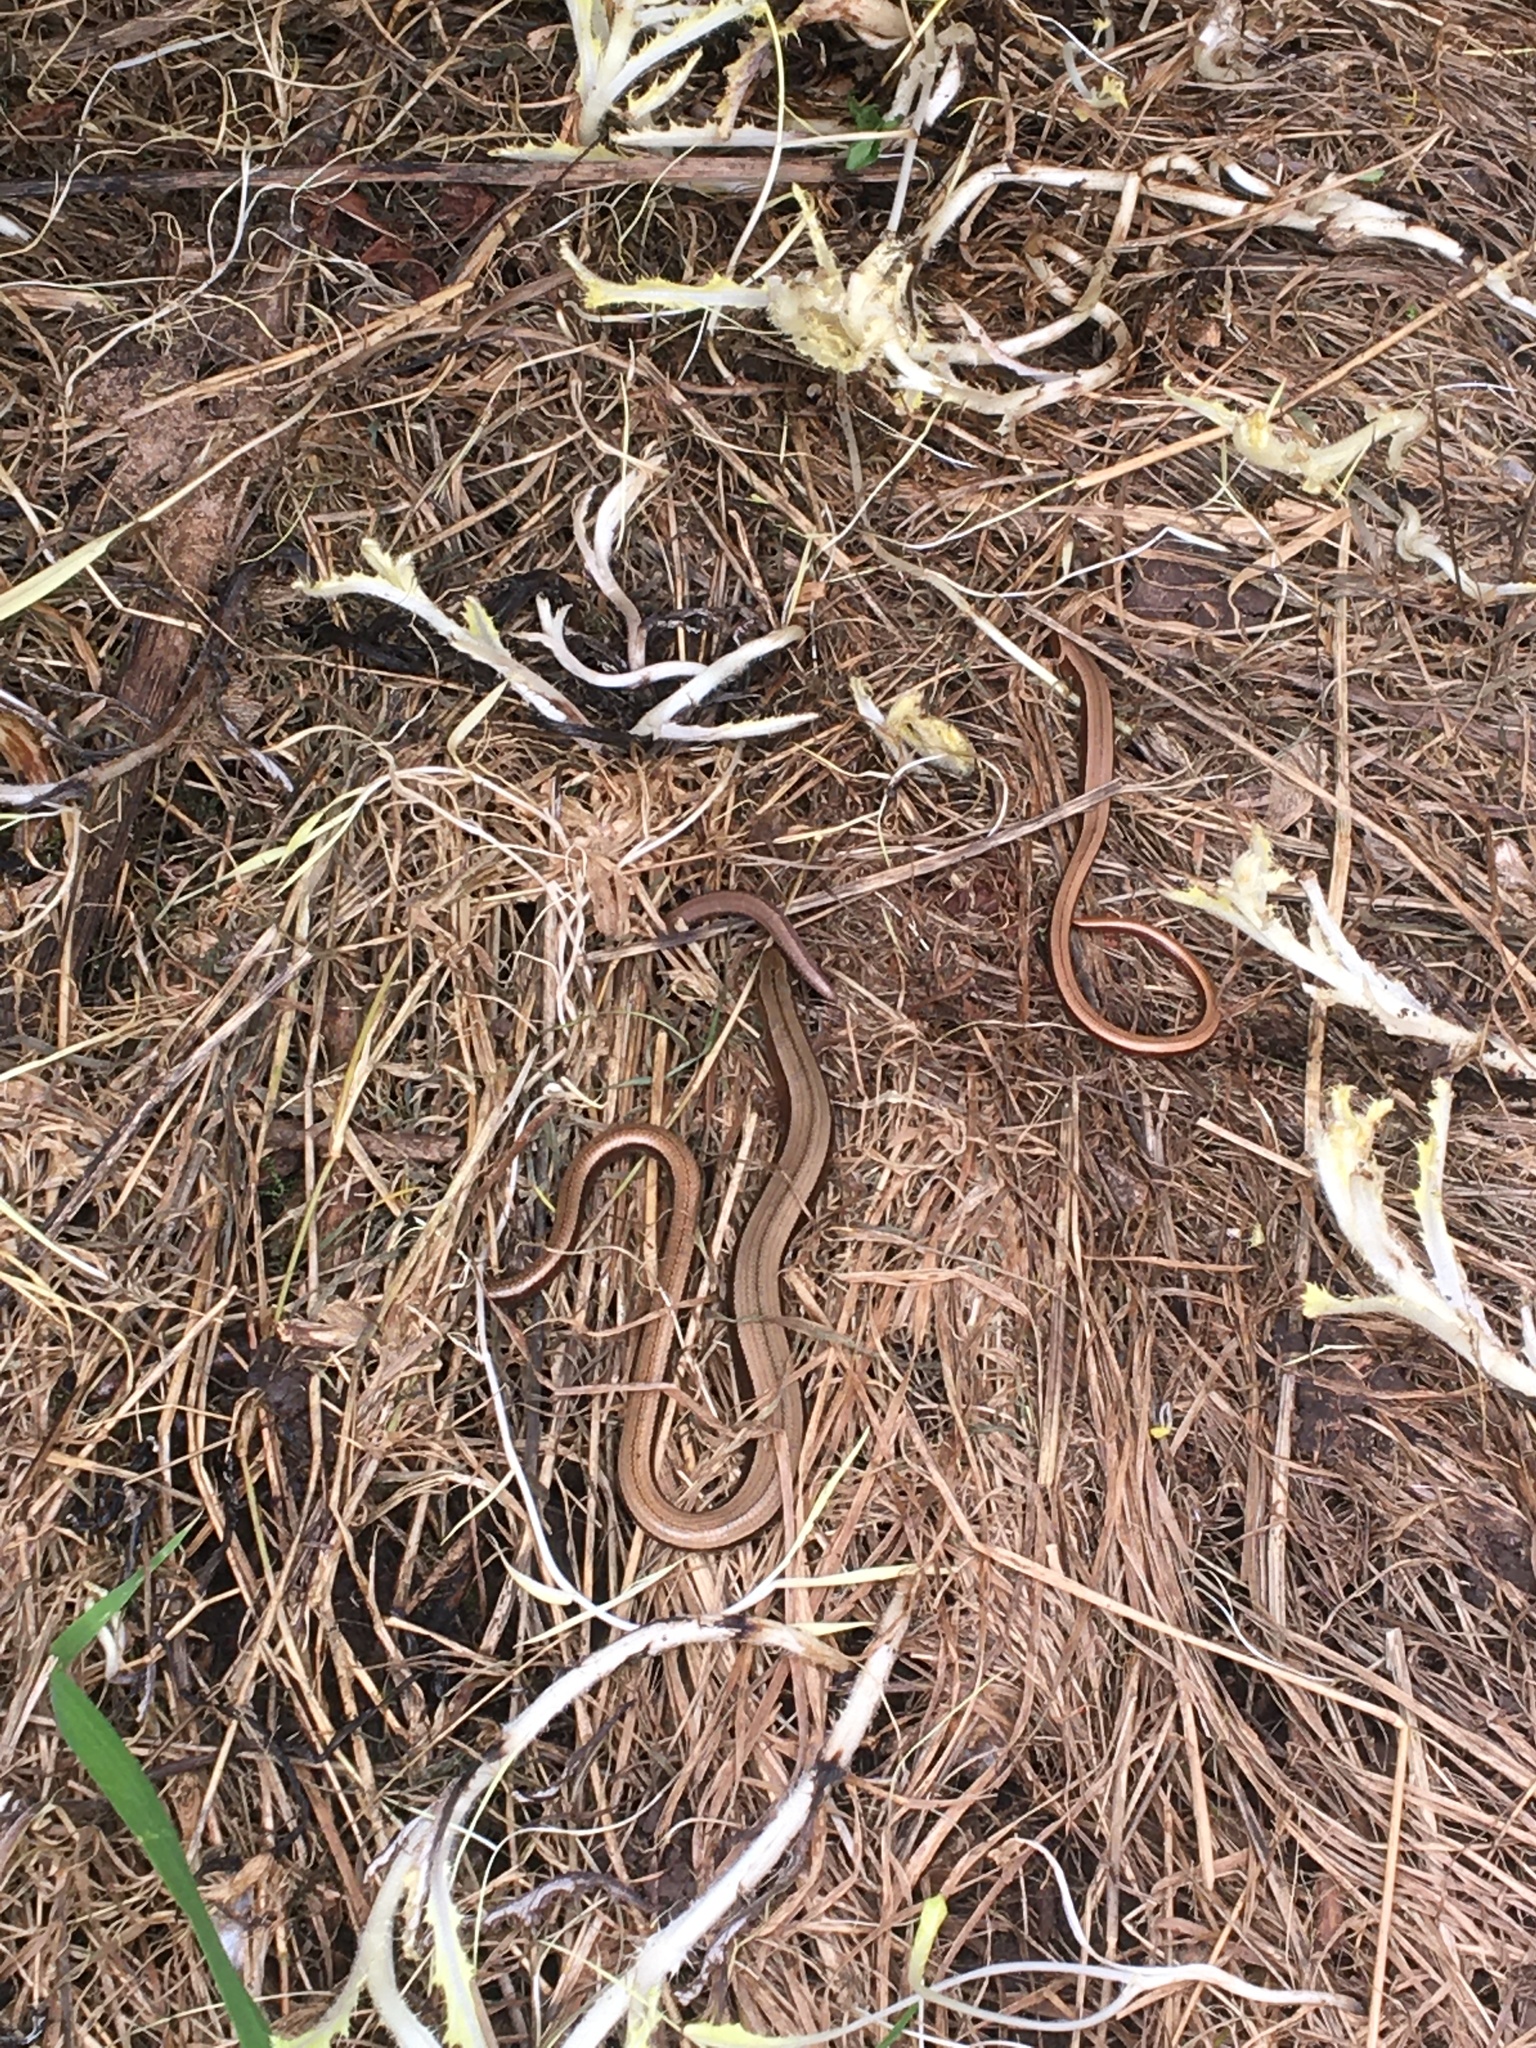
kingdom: Animalia
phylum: Chordata
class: Squamata
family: Anguidae
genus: Anguis
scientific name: Anguis fragilis
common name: Slow worm
